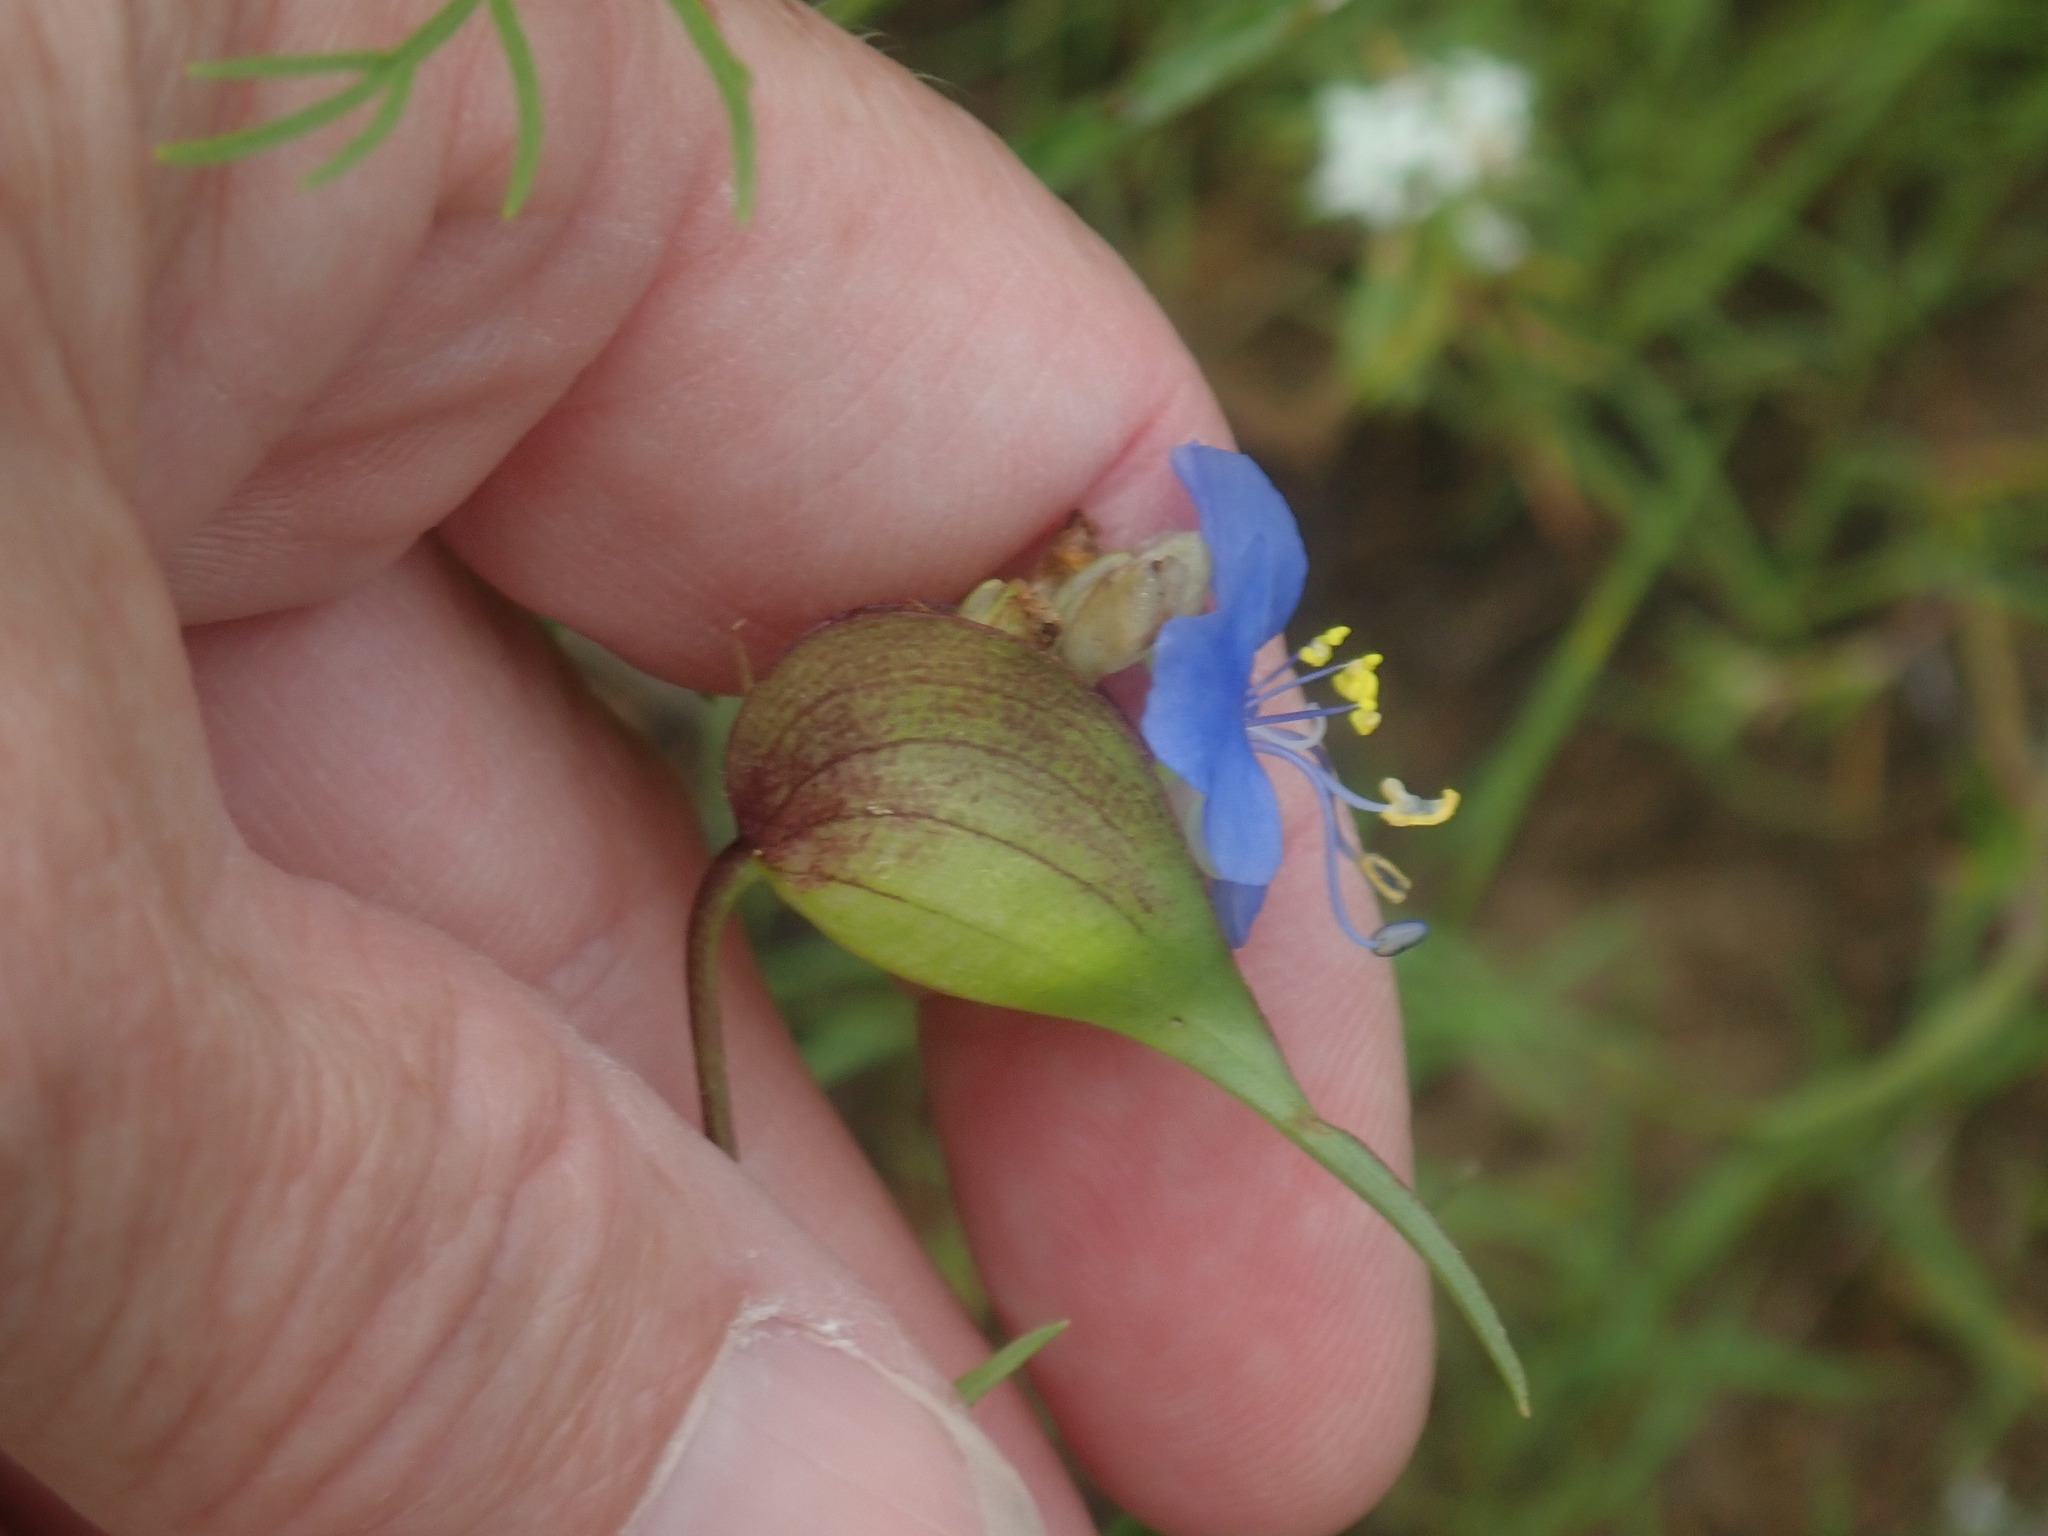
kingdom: Plantae
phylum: Tracheophyta
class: Liliopsida
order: Commelinales
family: Commelinaceae
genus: Commelina
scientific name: Commelina dianthifolia
